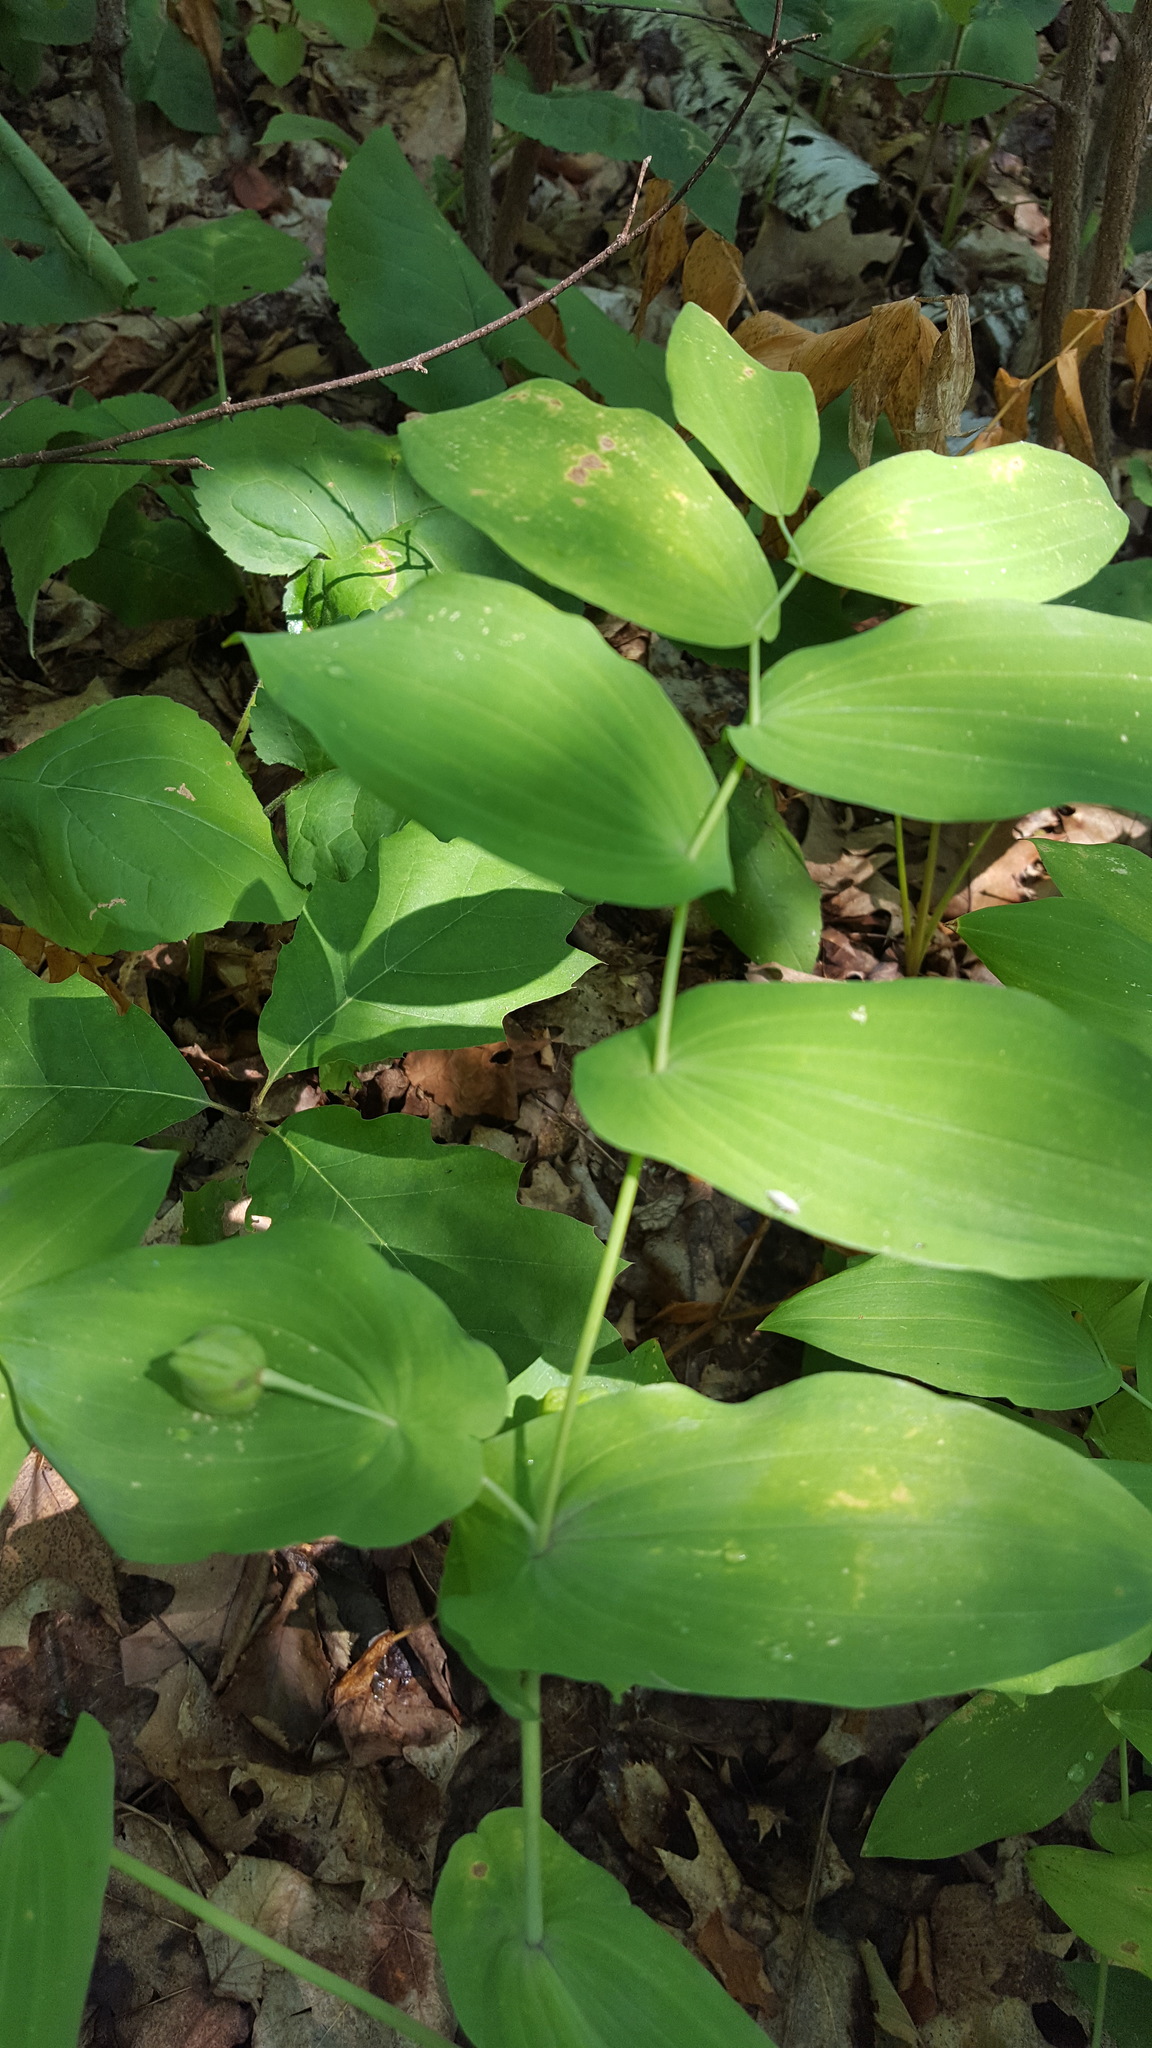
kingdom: Plantae
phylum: Tracheophyta
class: Liliopsida
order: Liliales
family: Colchicaceae
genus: Uvularia
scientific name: Uvularia grandiflora
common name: Bellwort
